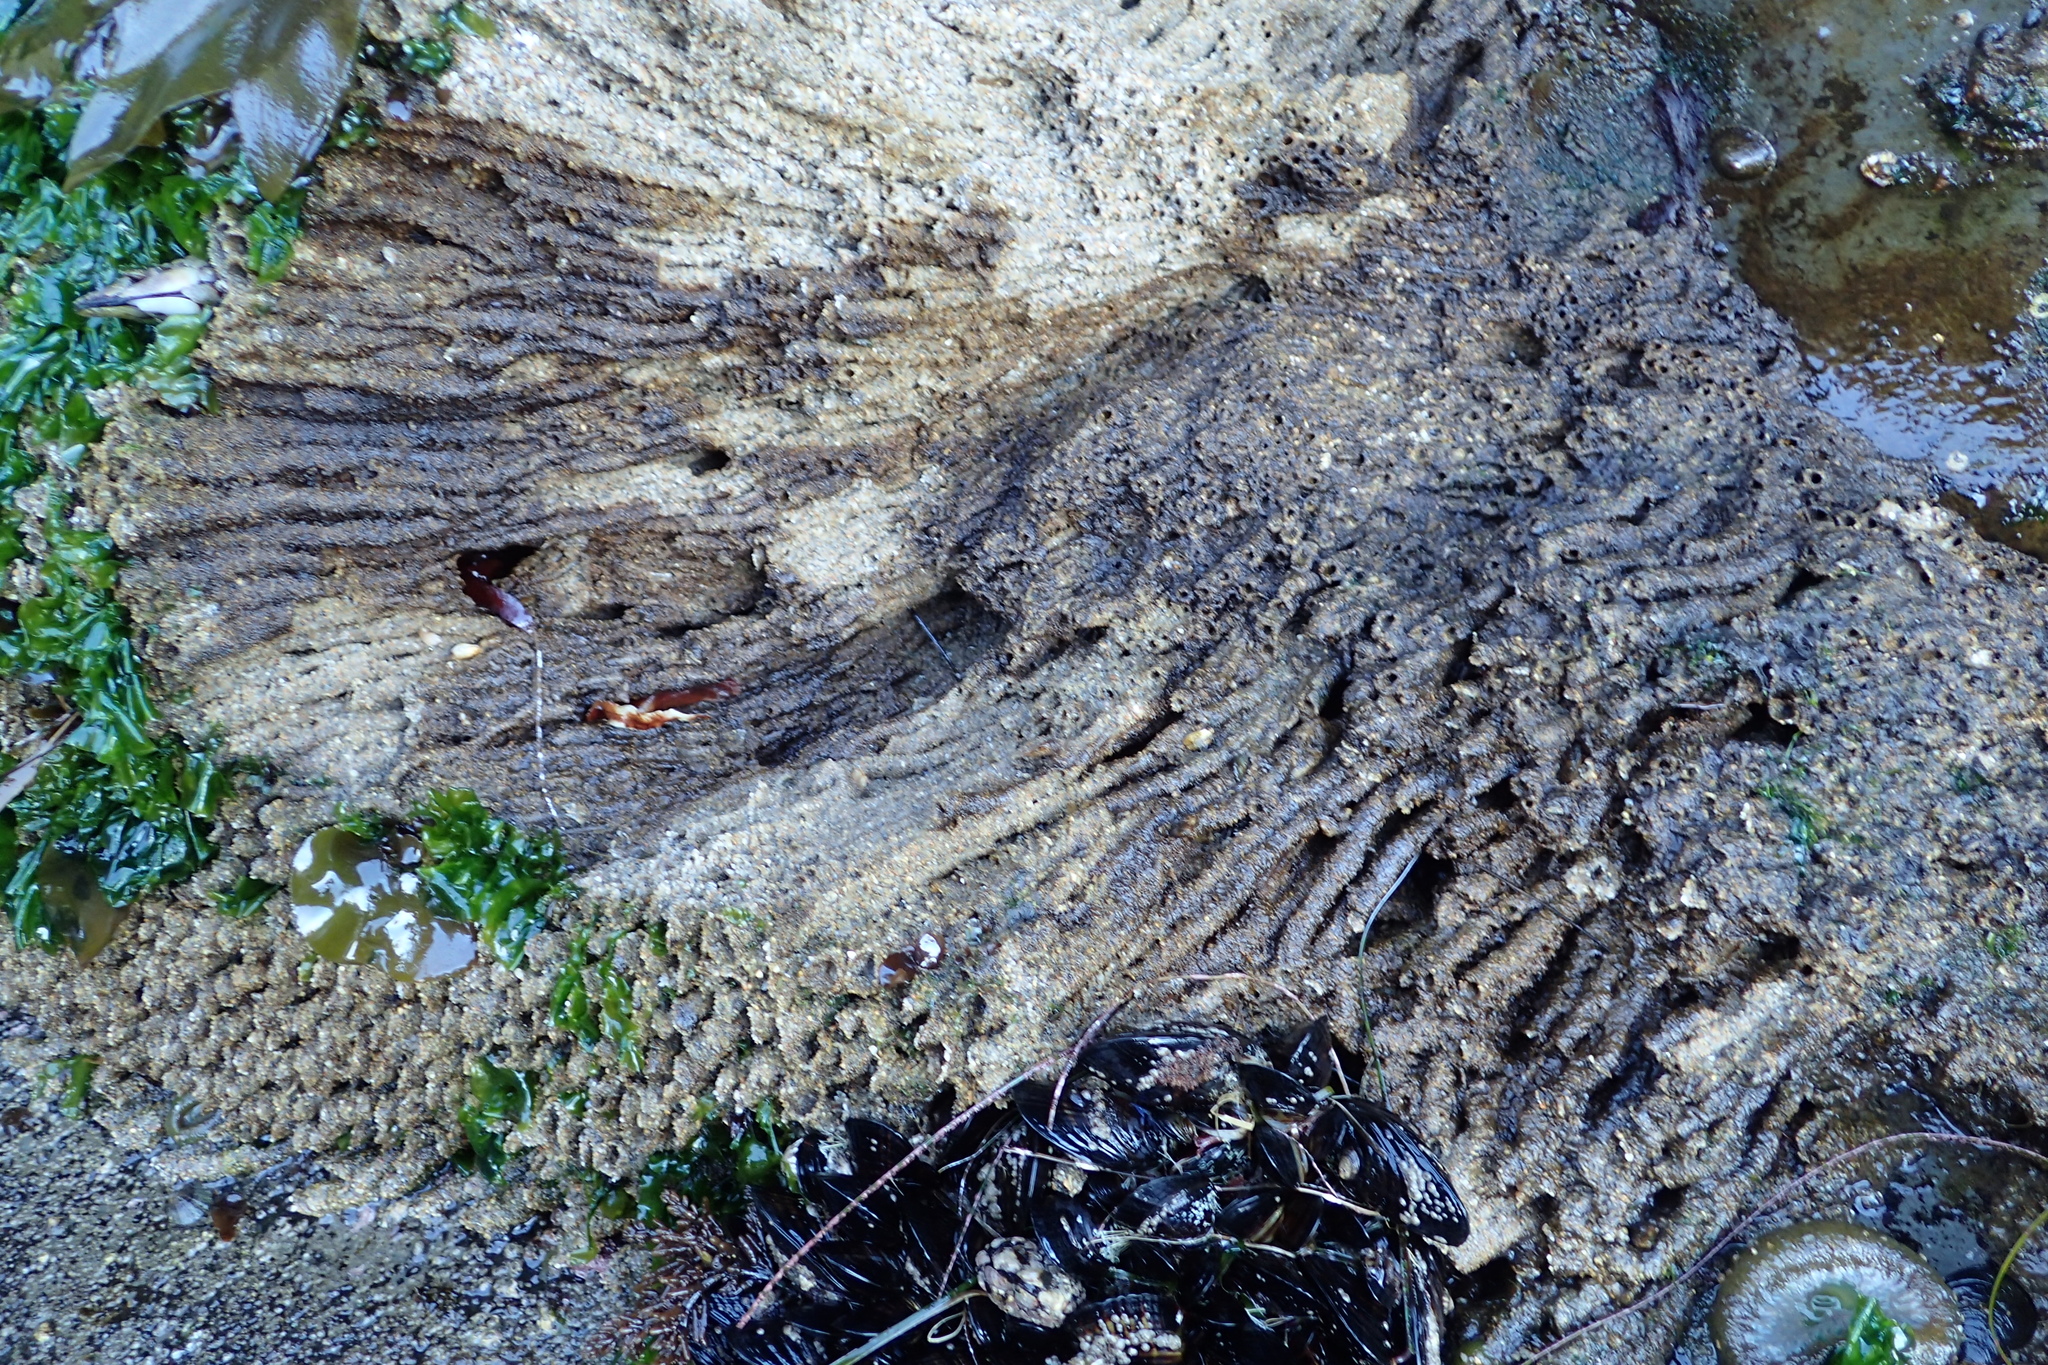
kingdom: Animalia
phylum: Annelida
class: Polychaeta
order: Sabellida
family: Sabellariidae
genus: Phragmatopoma
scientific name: Phragmatopoma californica
